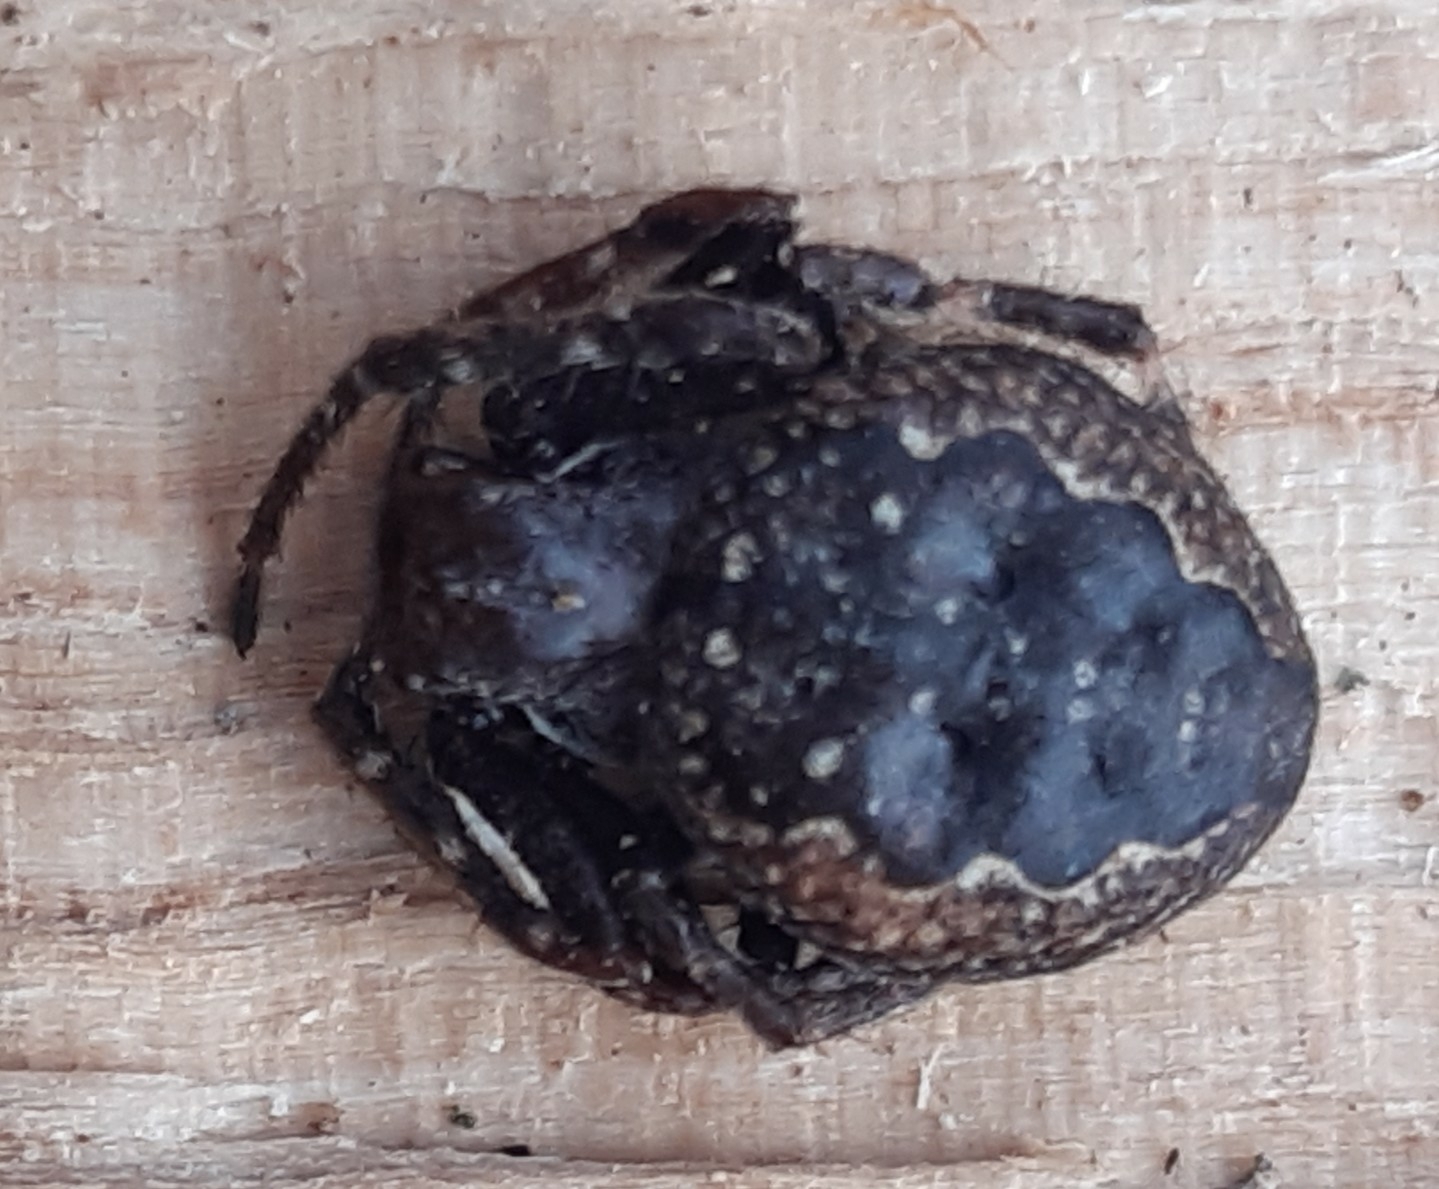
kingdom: Animalia
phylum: Arthropoda
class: Arachnida
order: Araneae
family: Araneidae
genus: Nuctenea
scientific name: Nuctenea umbratica
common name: Toad spider
